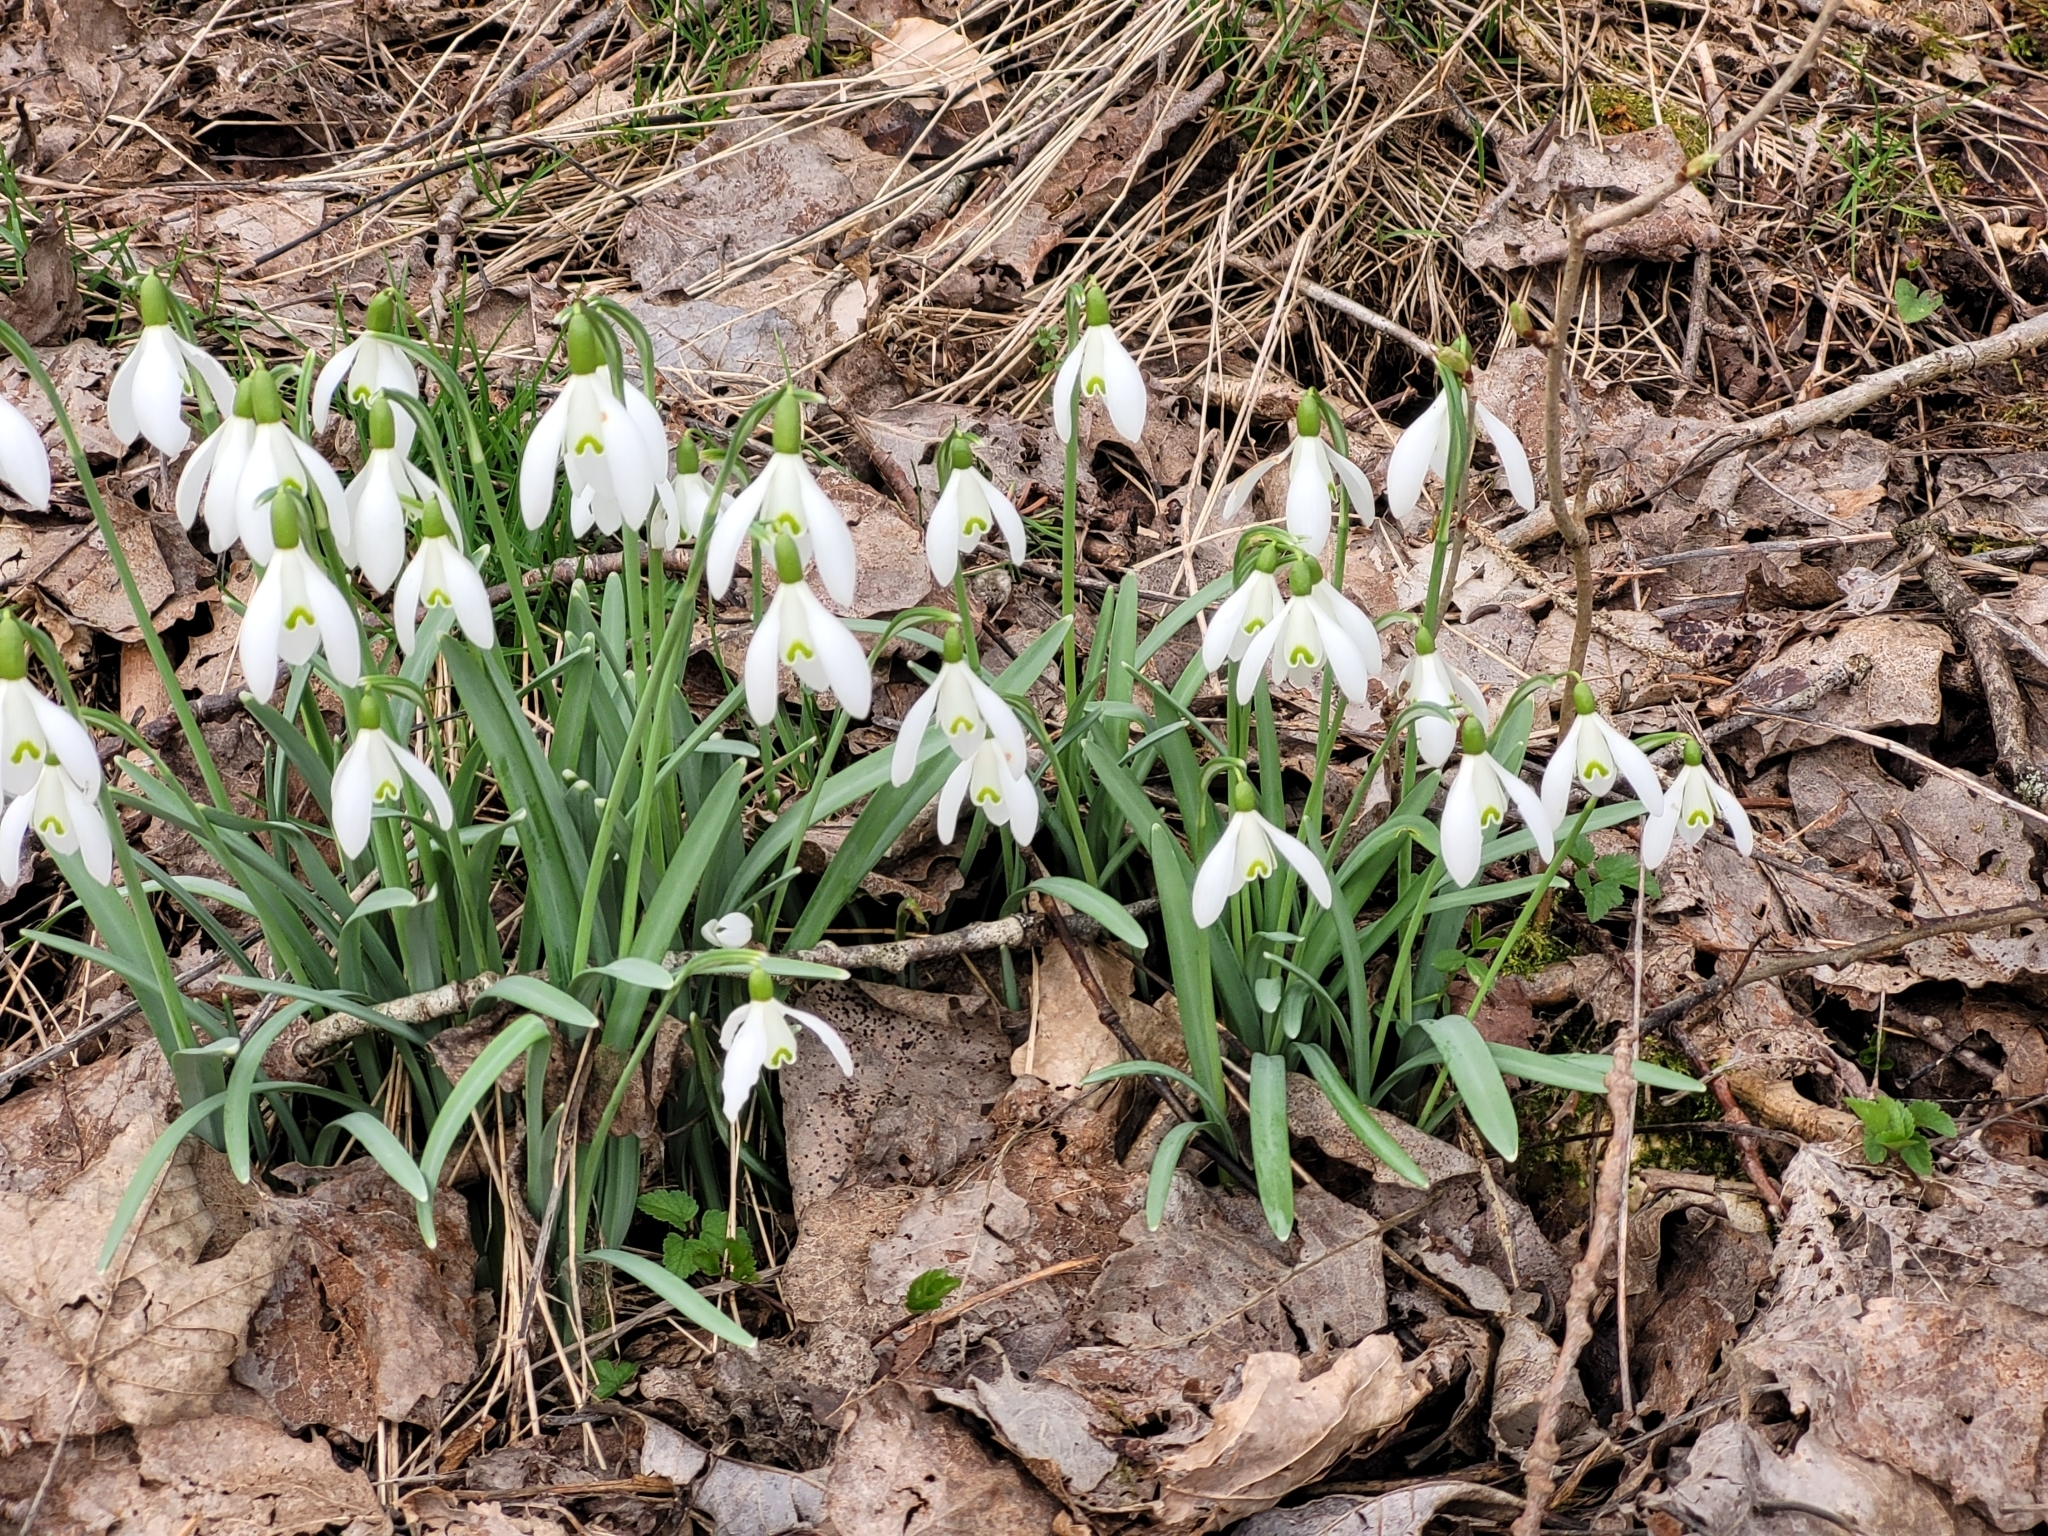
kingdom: Plantae
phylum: Tracheophyta
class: Liliopsida
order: Asparagales
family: Amaryllidaceae
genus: Galanthus
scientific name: Galanthus nivalis
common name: Snowdrop
